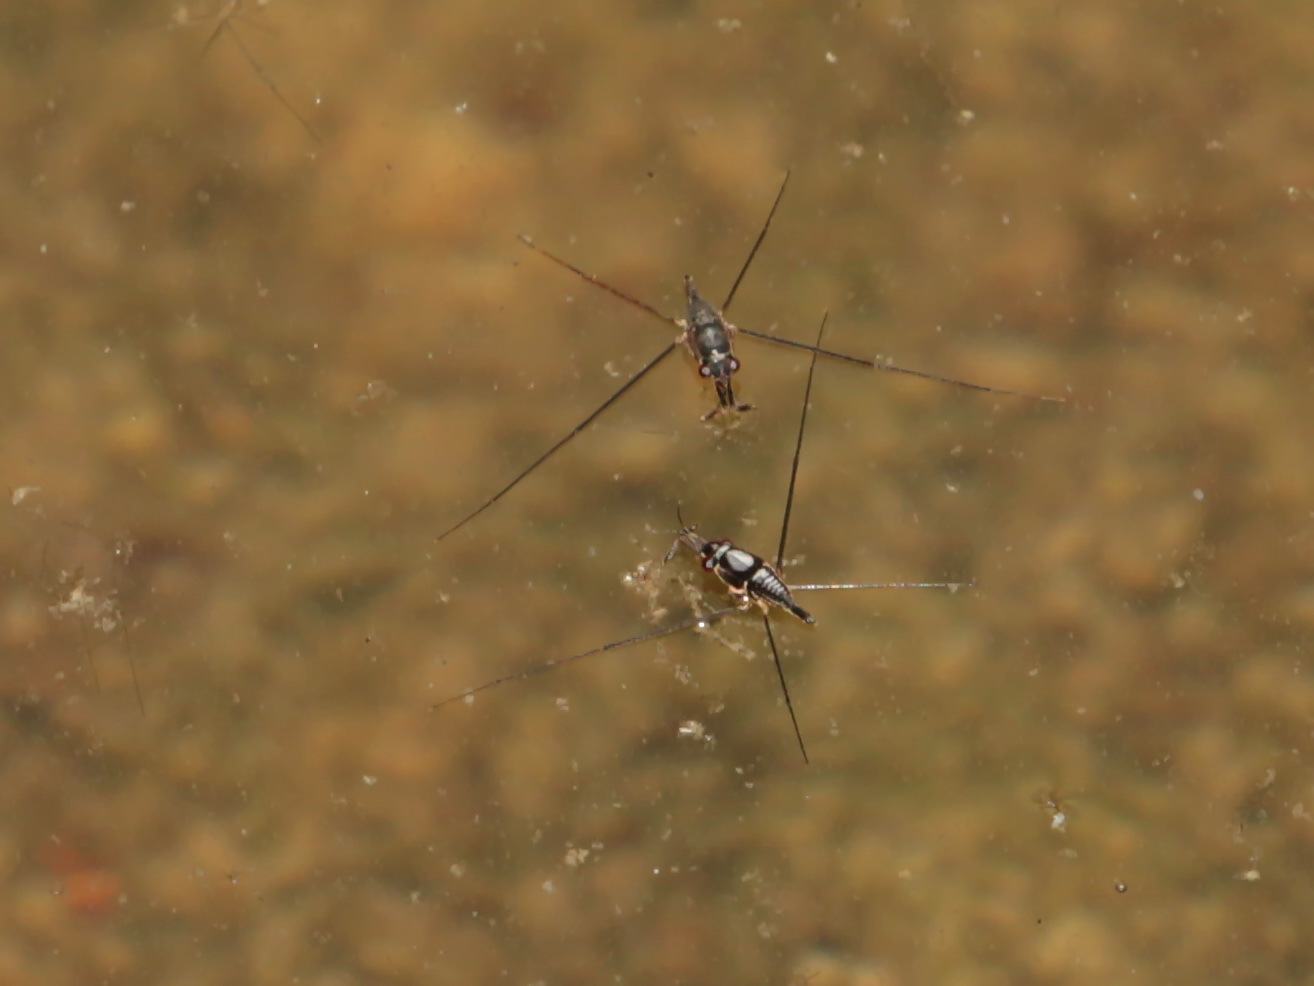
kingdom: Animalia
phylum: Arthropoda
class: Insecta
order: Hemiptera
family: Gerridae
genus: Rhagadotarsus
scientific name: Rhagadotarsus kraepelini
